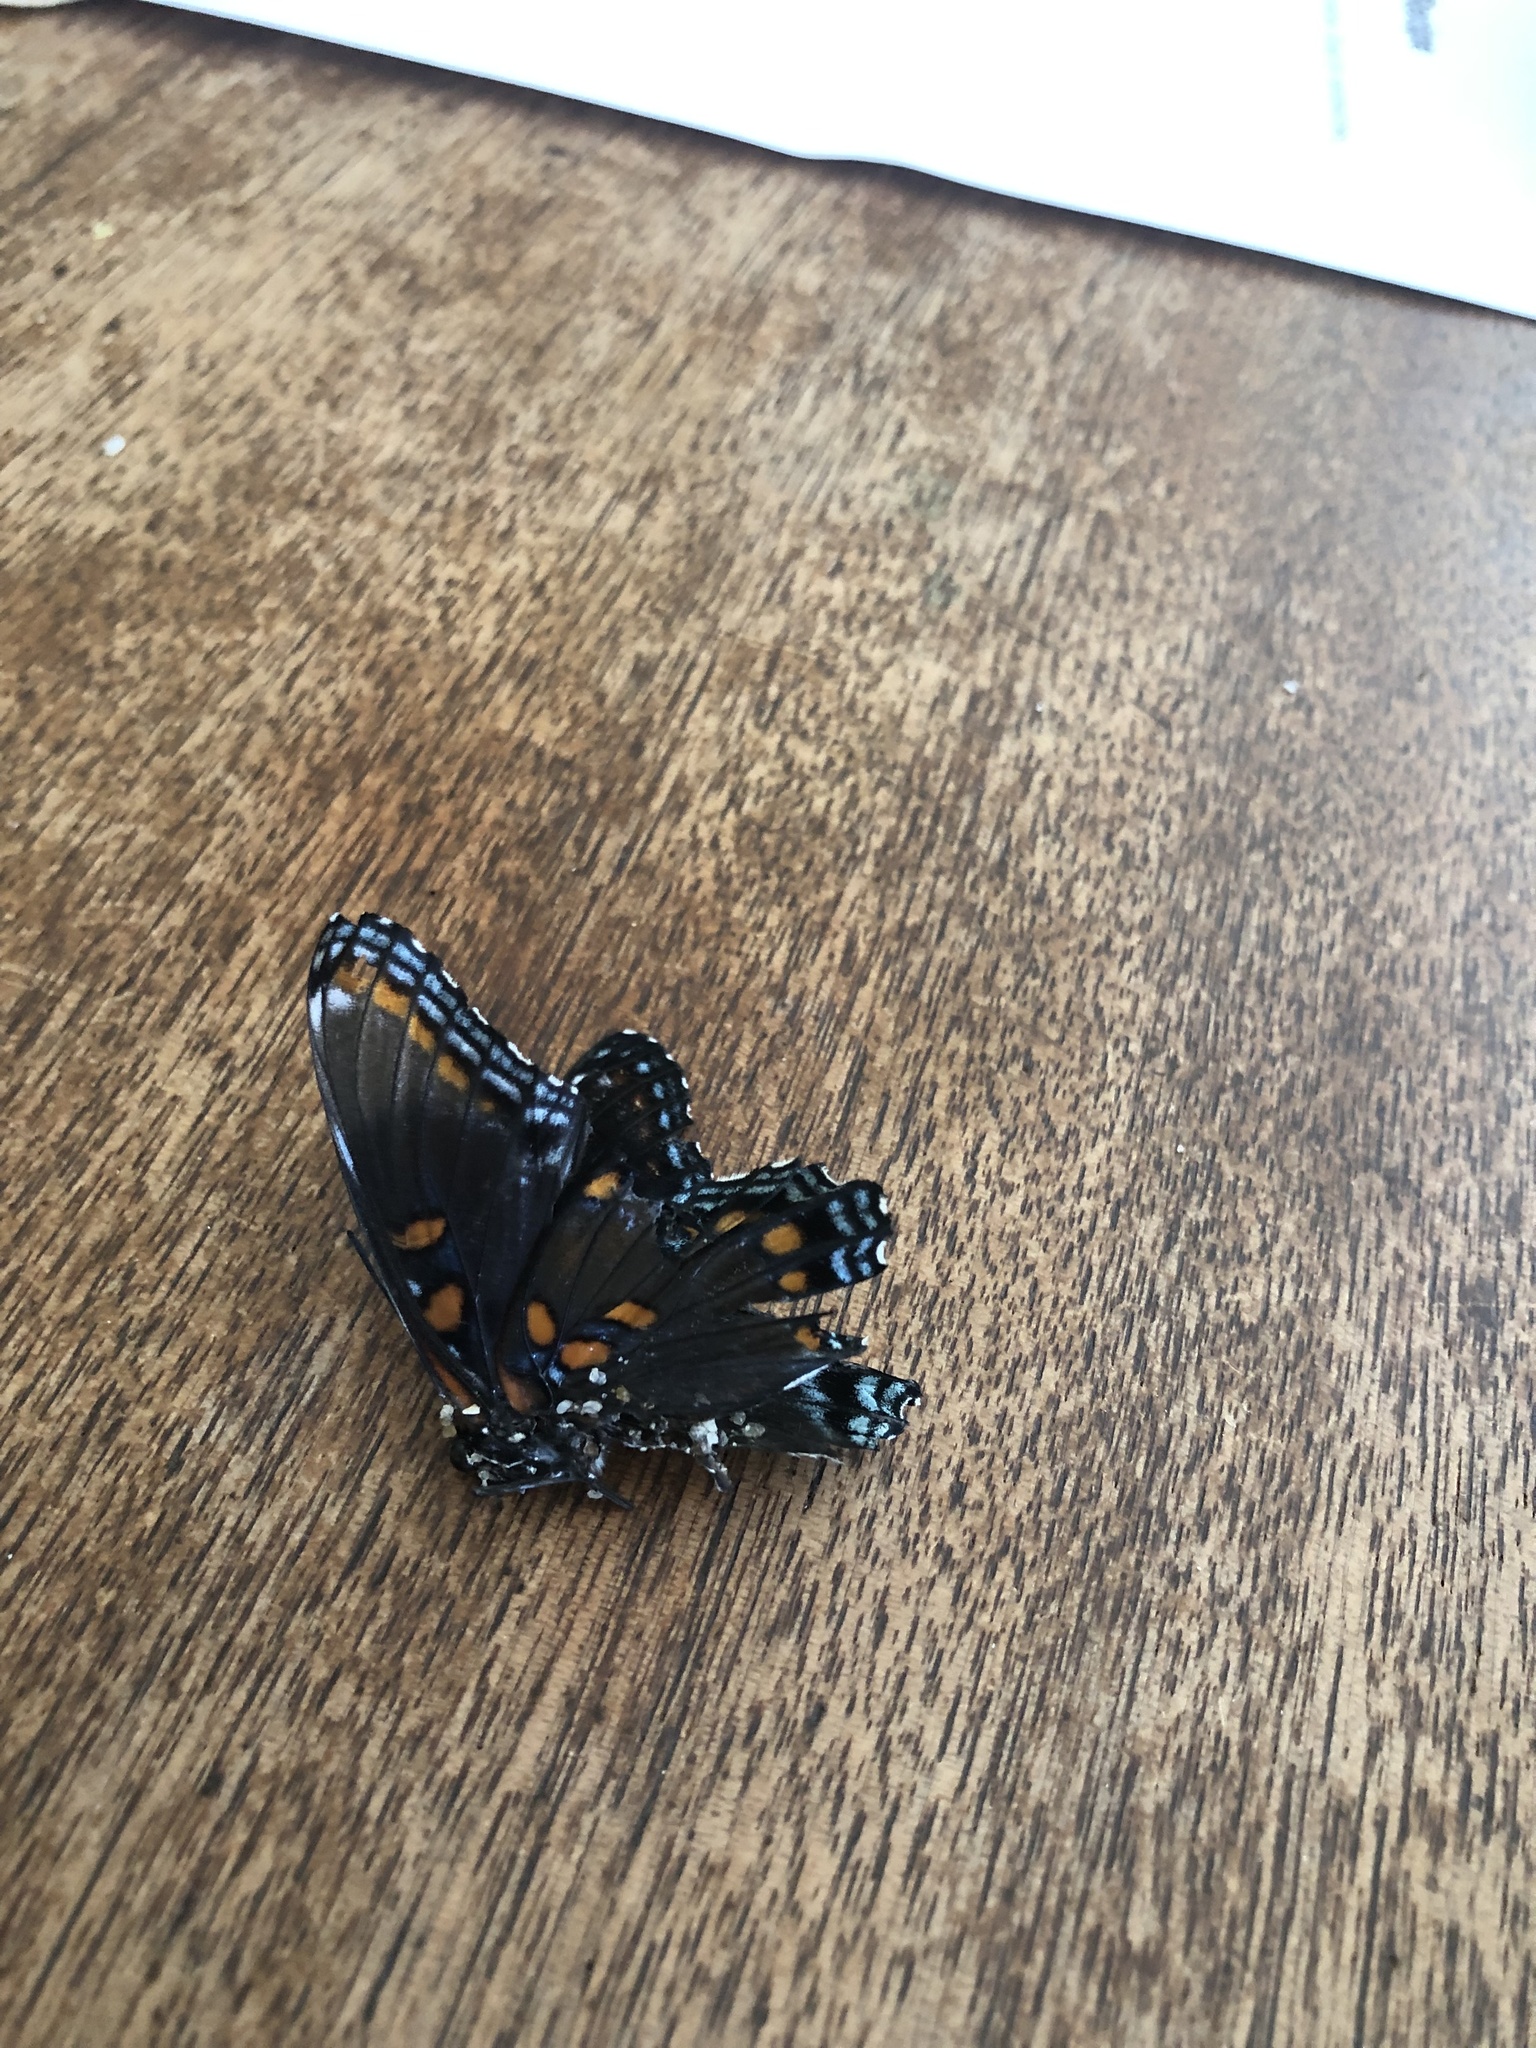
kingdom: Animalia
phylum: Arthropoda
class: Insecta
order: Lepidoptera
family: Nymphalidae
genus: Limenitis
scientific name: Limenitis arthemis
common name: Red-spotted admiral
